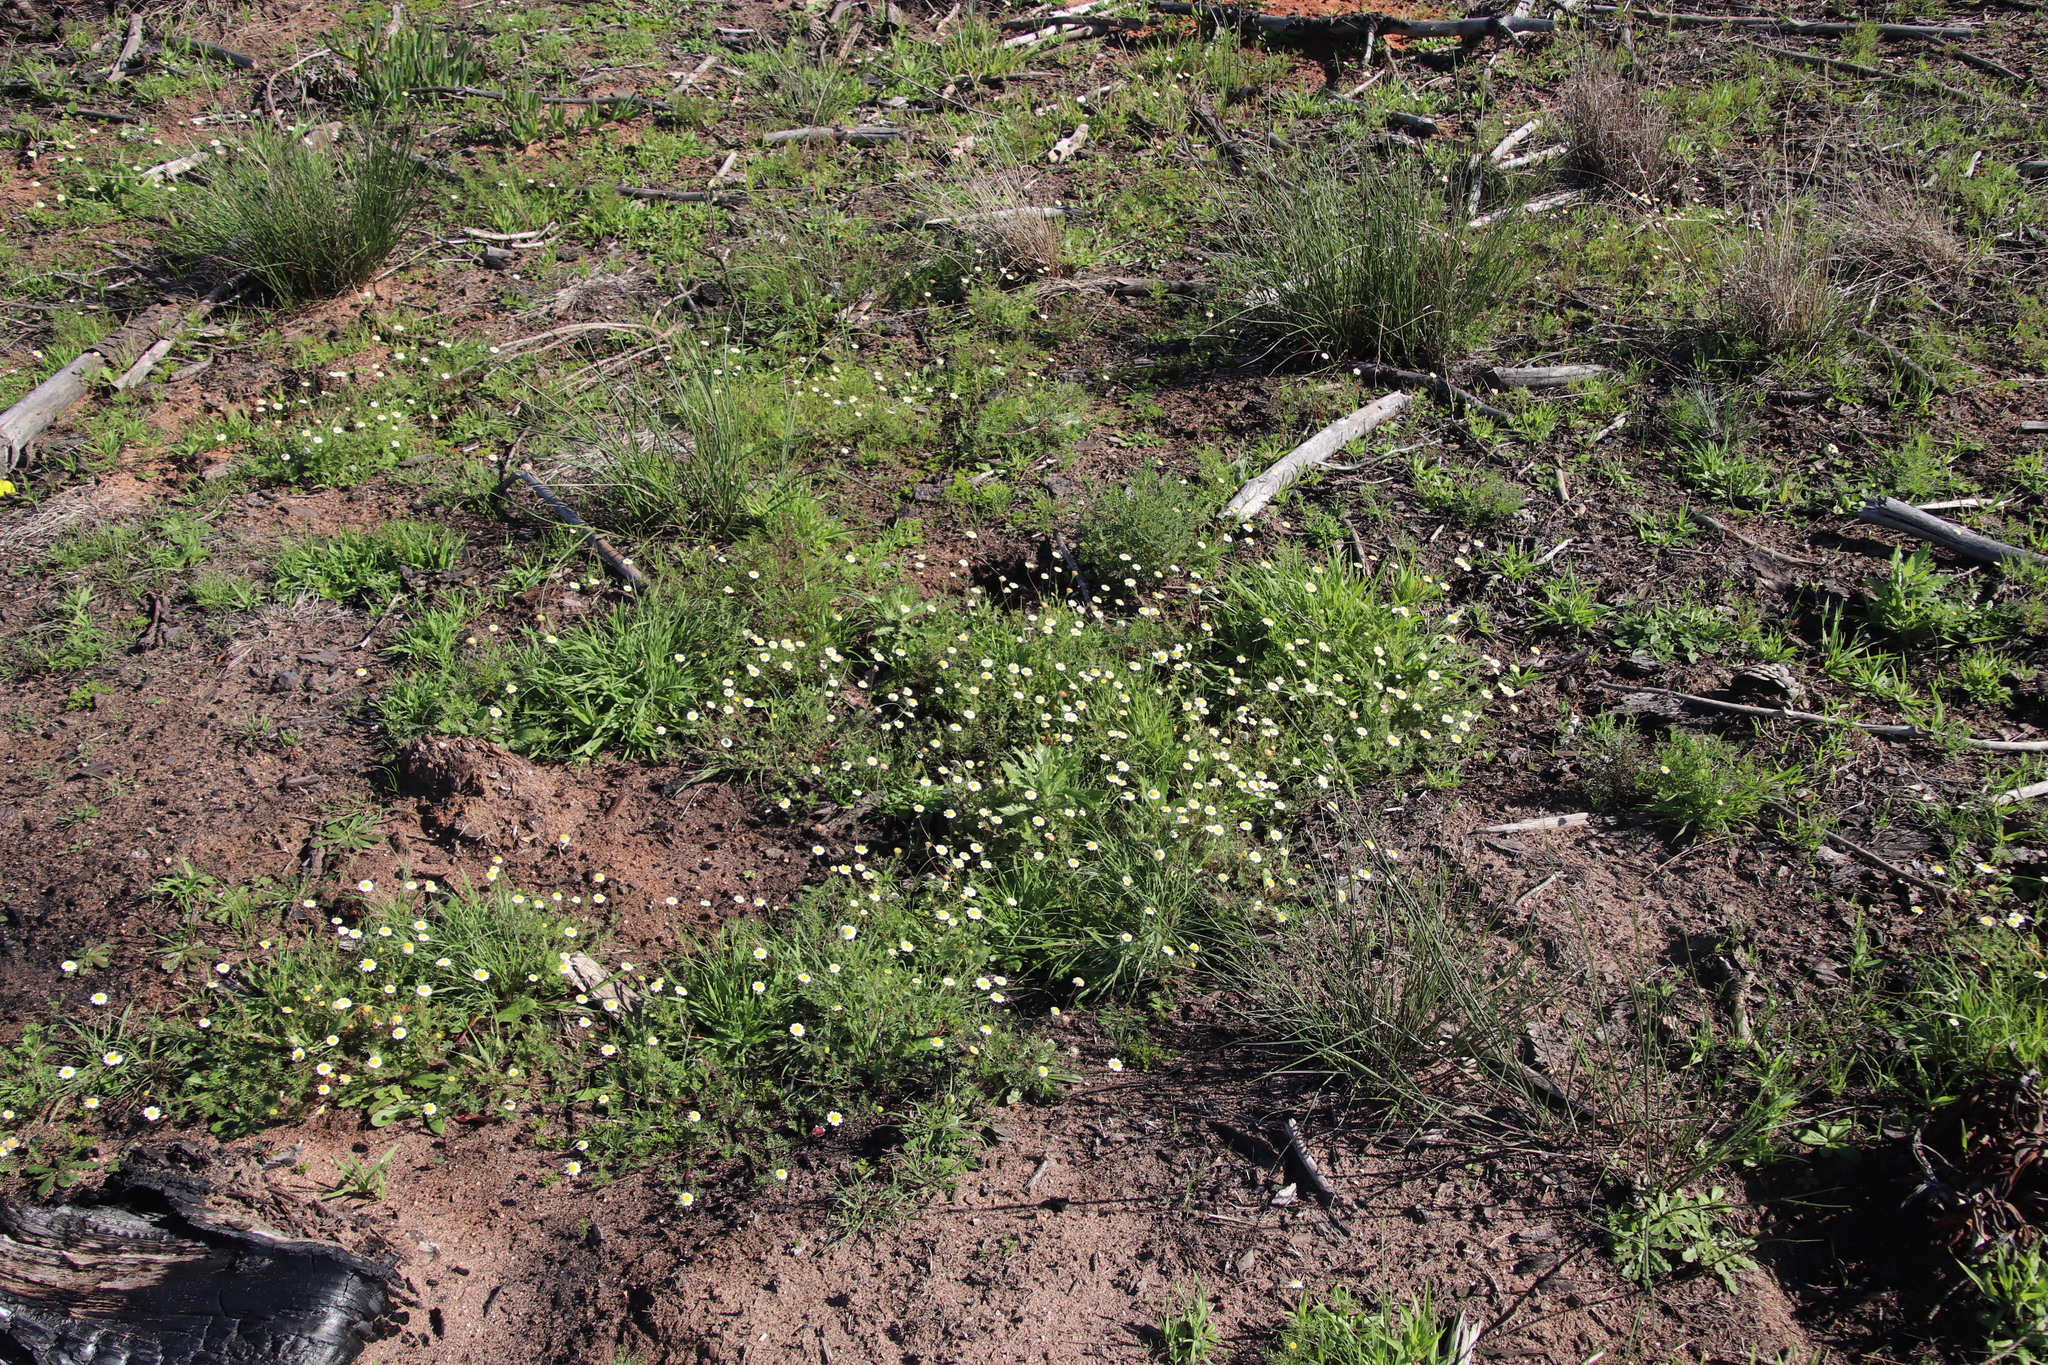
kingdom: Plantae
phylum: Tracheophyta
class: Magnoliopsida
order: Asterales
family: Asteraceae
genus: Cotula
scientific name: Cotula turbinata
